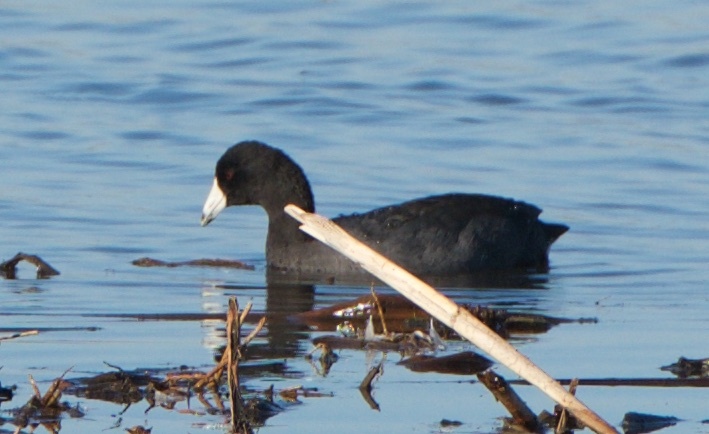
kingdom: Animalia
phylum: Chordata
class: Aves
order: Gruiformes
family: Rallidae
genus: Fulica
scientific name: Fulica americana
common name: American coot
